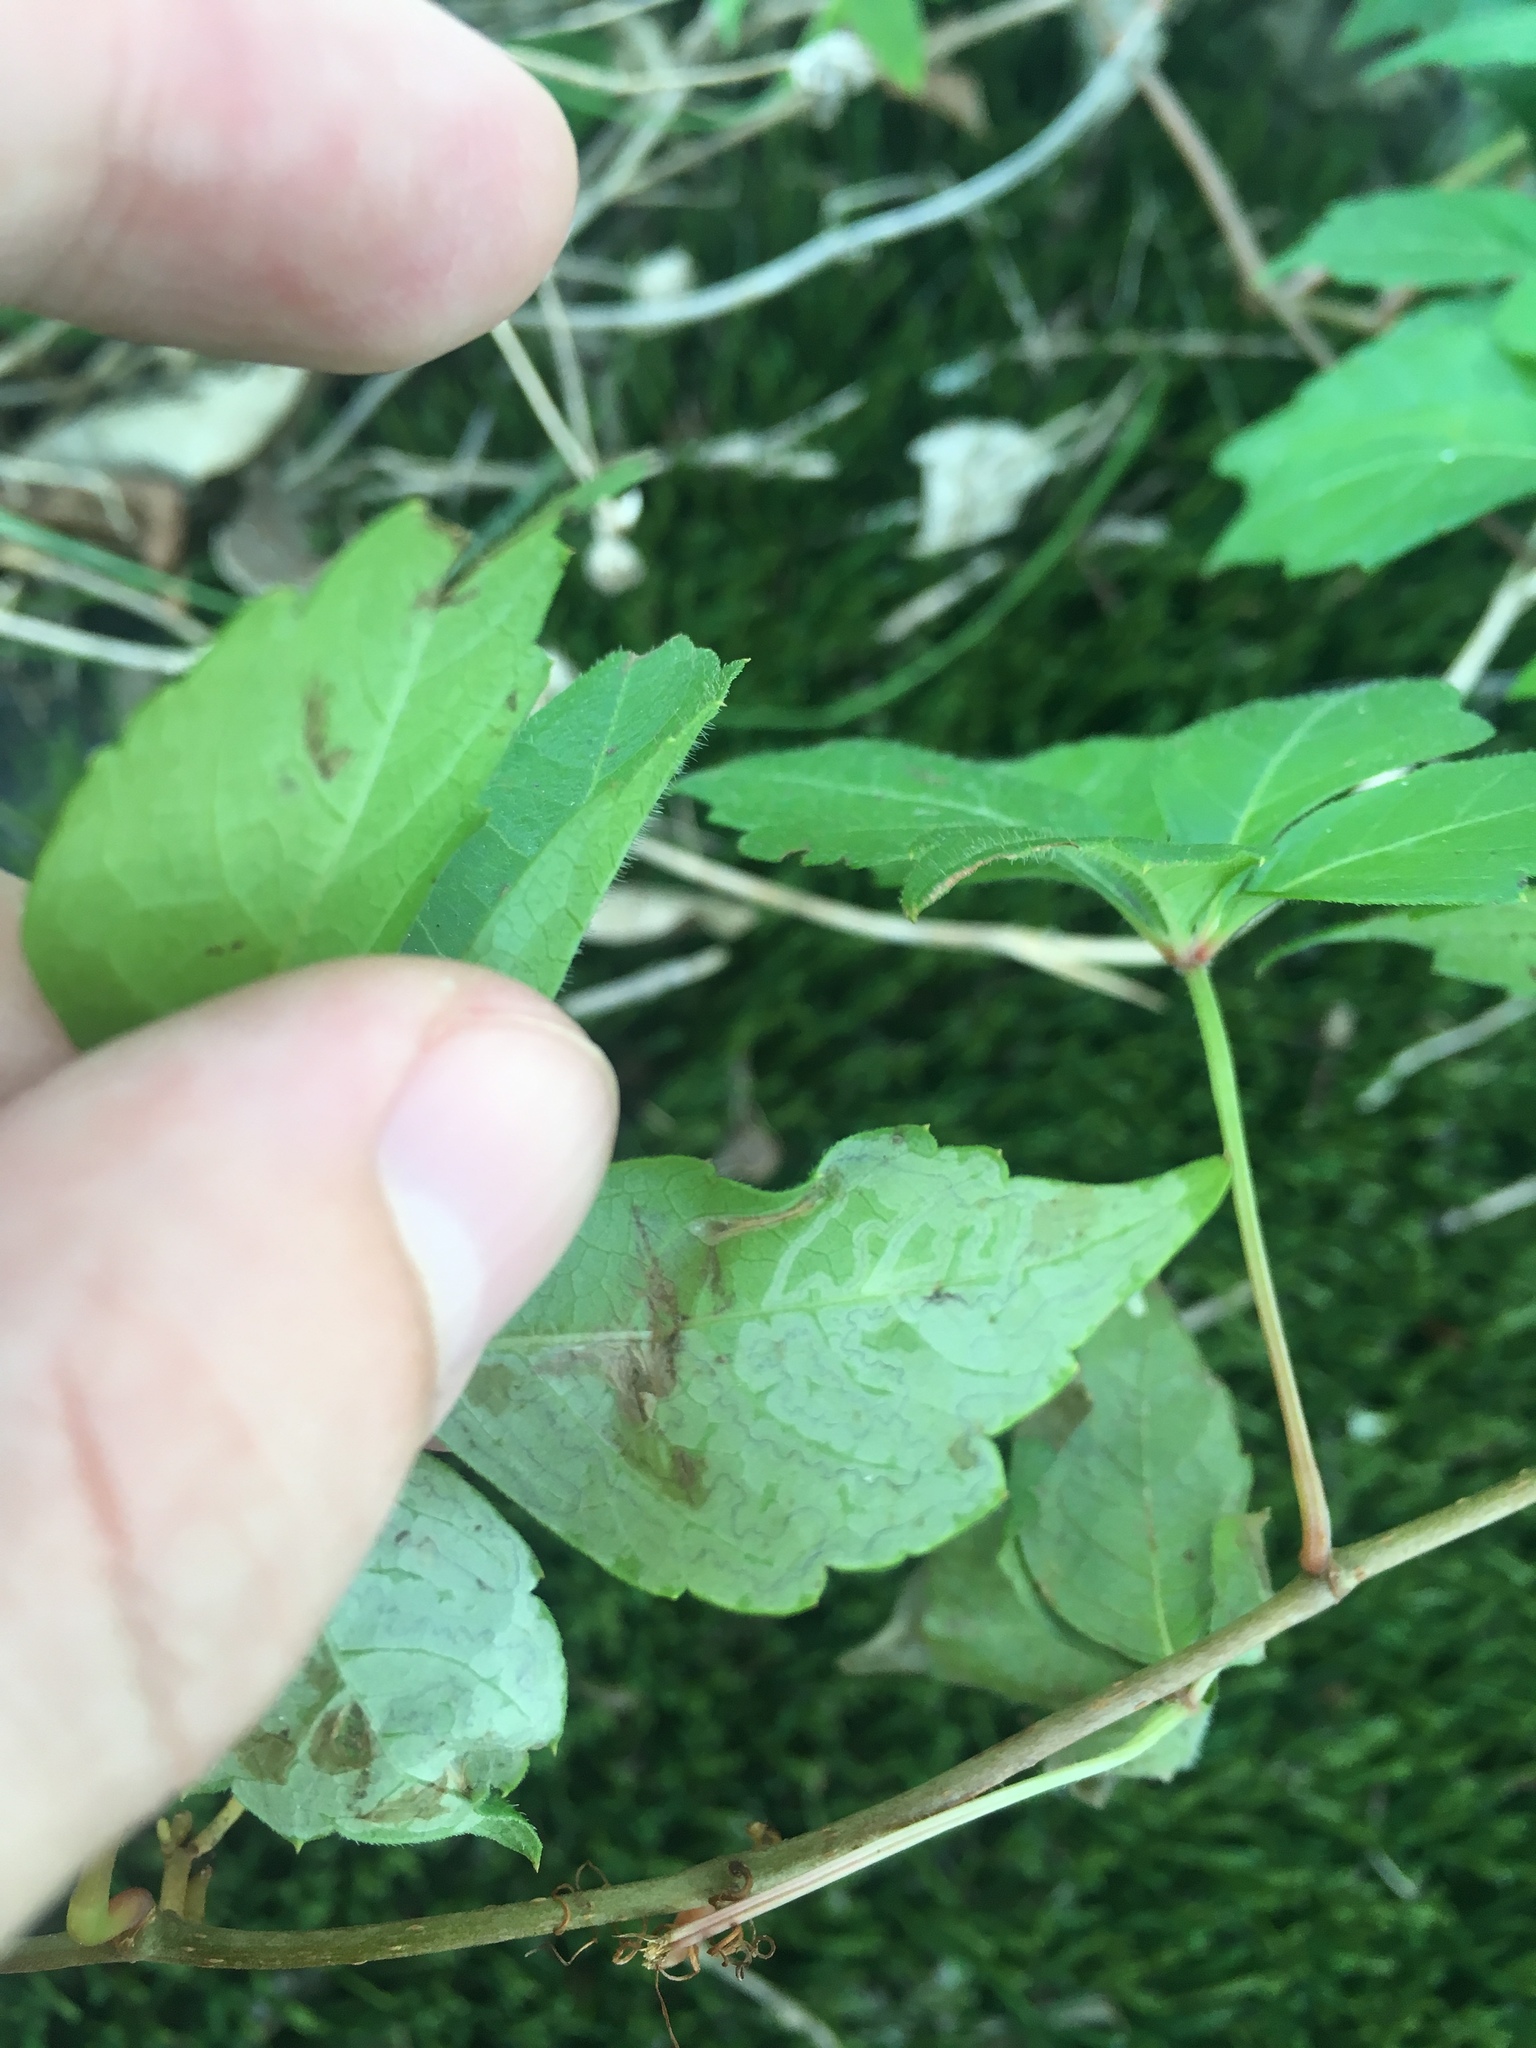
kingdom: Animalia
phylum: Arthropoda
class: Insecta
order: Lepidoptera
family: Gracillariidae
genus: Phyllocnistis
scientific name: Phyllocnistis ampelopsiella
